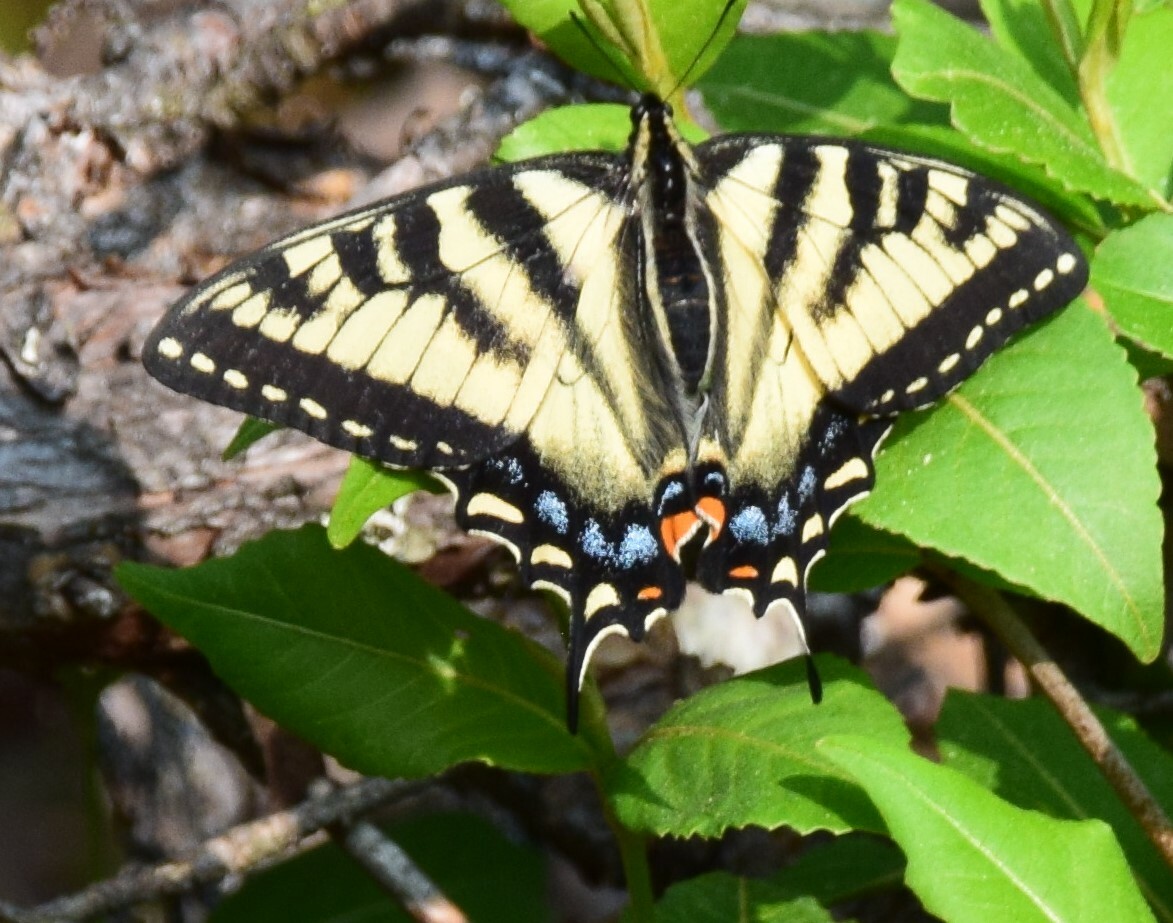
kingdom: Animalia
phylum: Arthropoda
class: Insecta
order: Lepidoptera
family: Papilionidae
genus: Papilio
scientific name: Papilio canadensis
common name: Canadian tiger swallowtail
